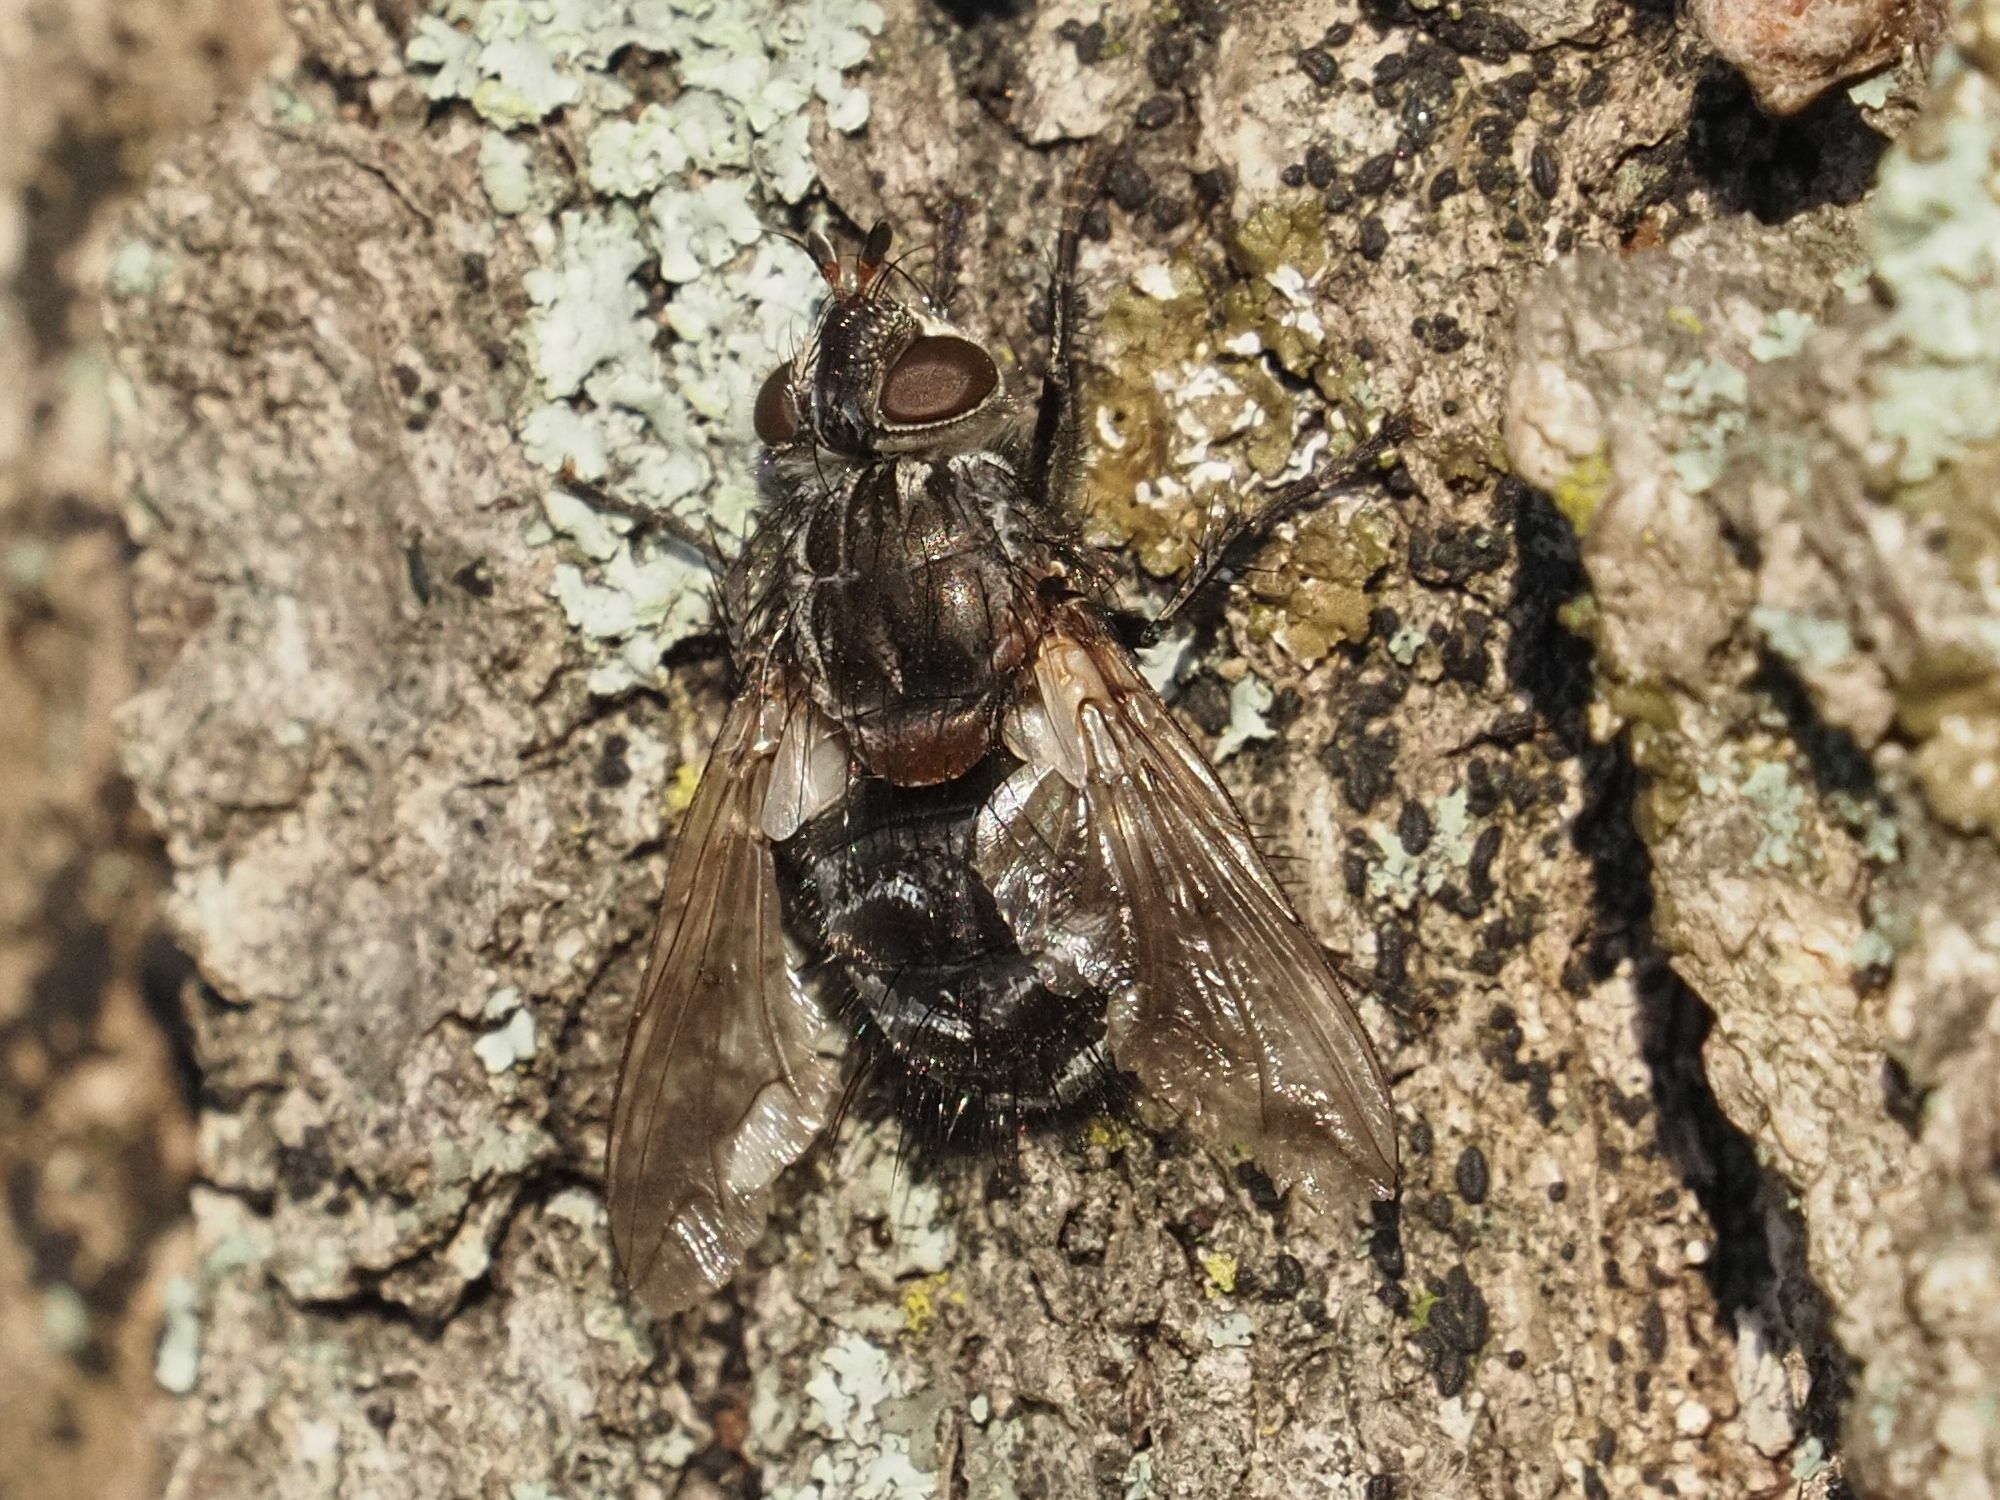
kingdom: Animalia
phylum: Arthropoda
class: Insecta
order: Diptera
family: Tachinidae
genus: Panzeria
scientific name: Panzeria puparum
